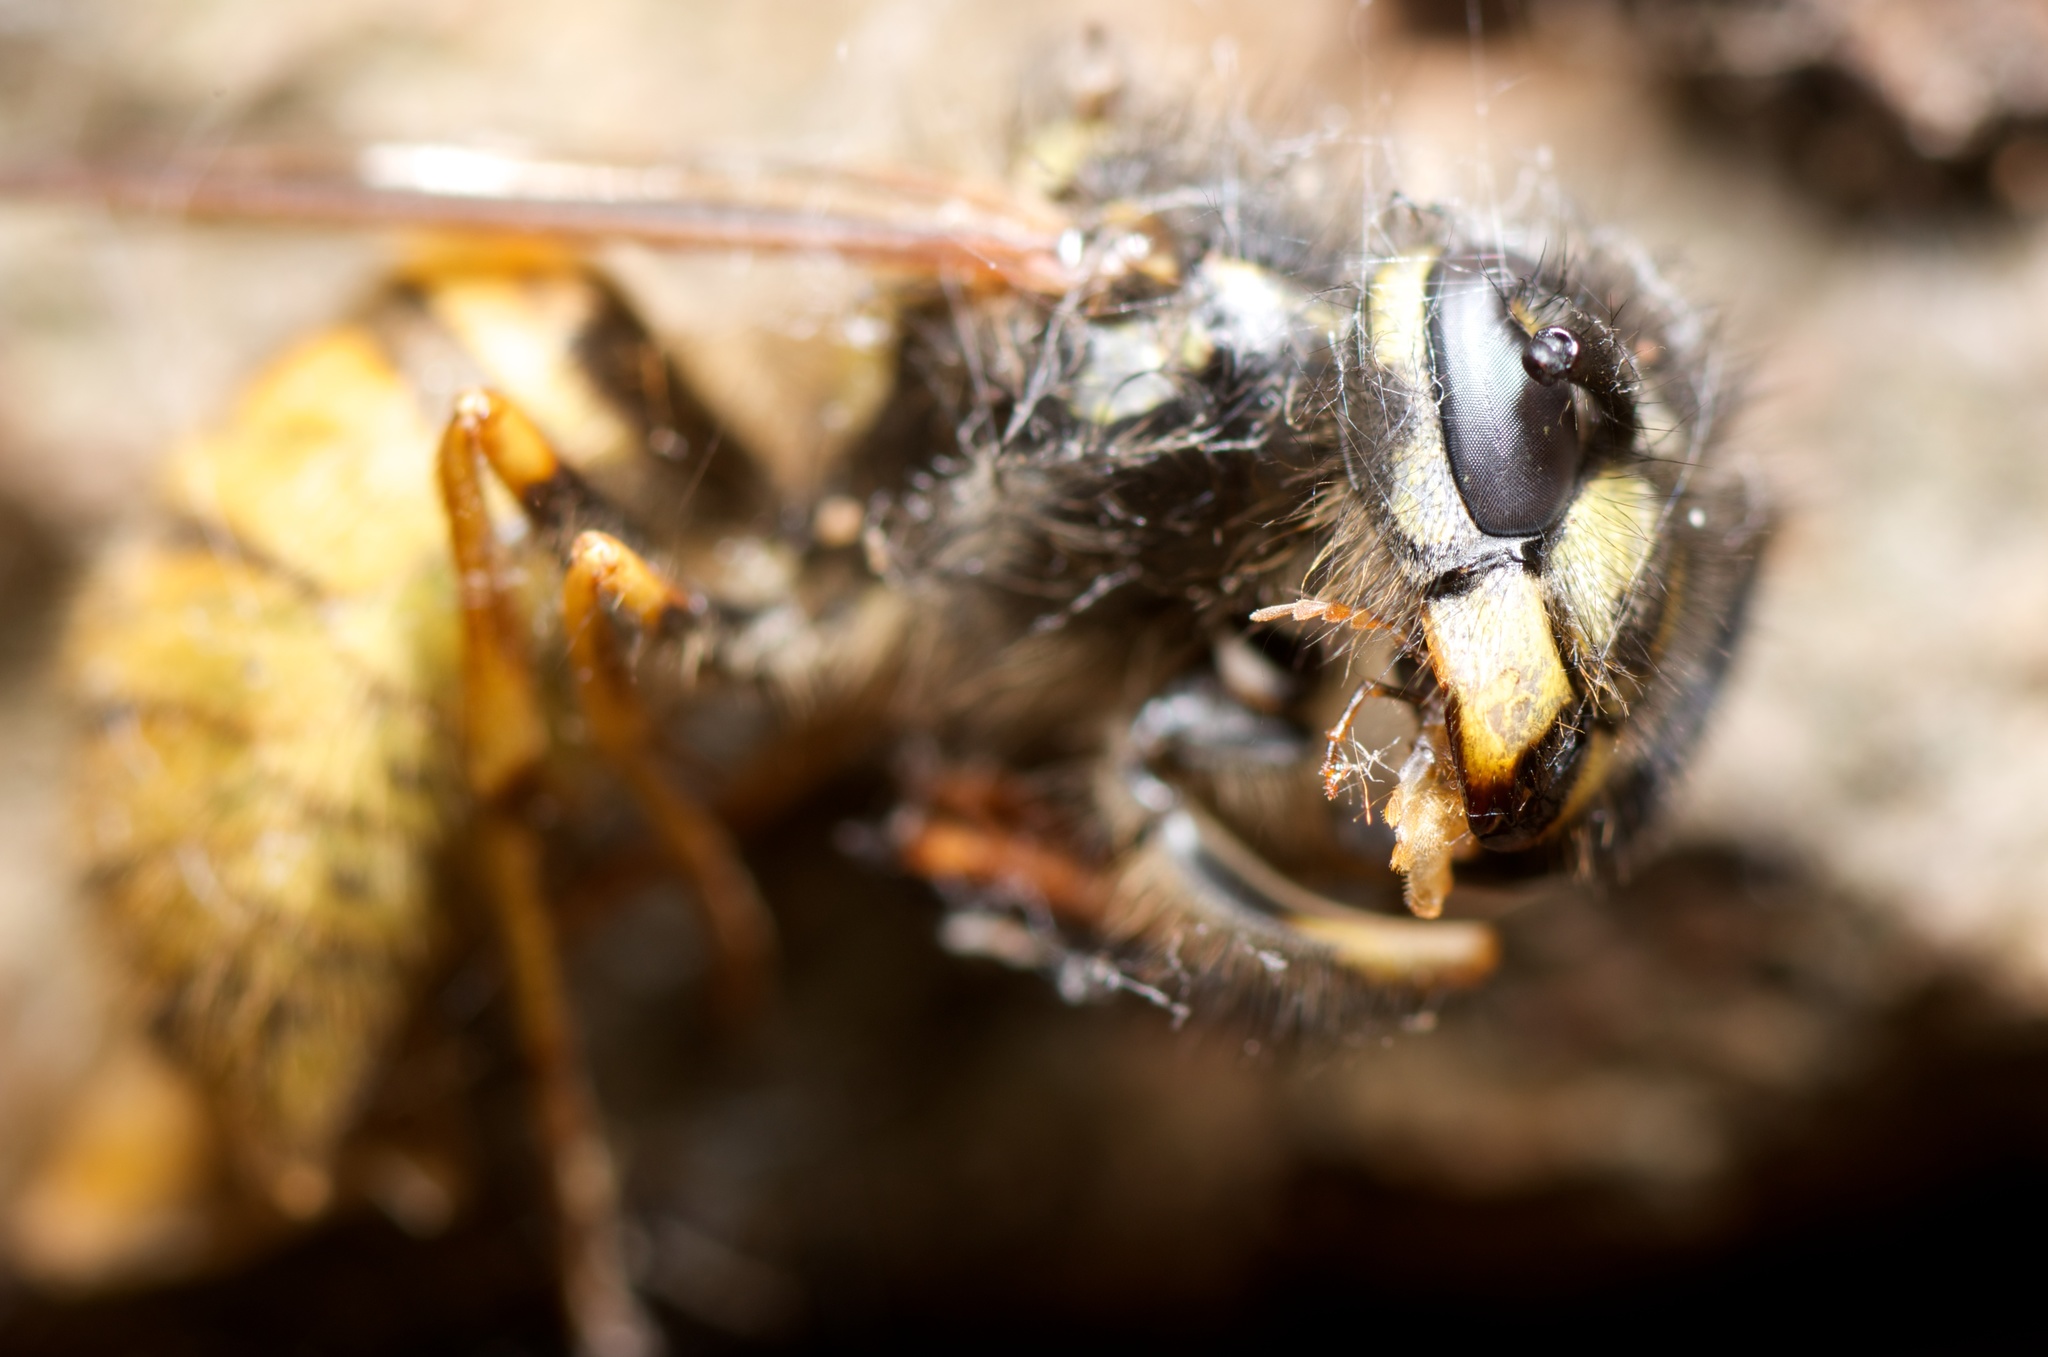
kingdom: Animalia
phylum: Arthropoda
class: Insecta
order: Hymenoptera
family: Vespidae
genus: Vespula
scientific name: Vespula vulgaris
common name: Common wasp
